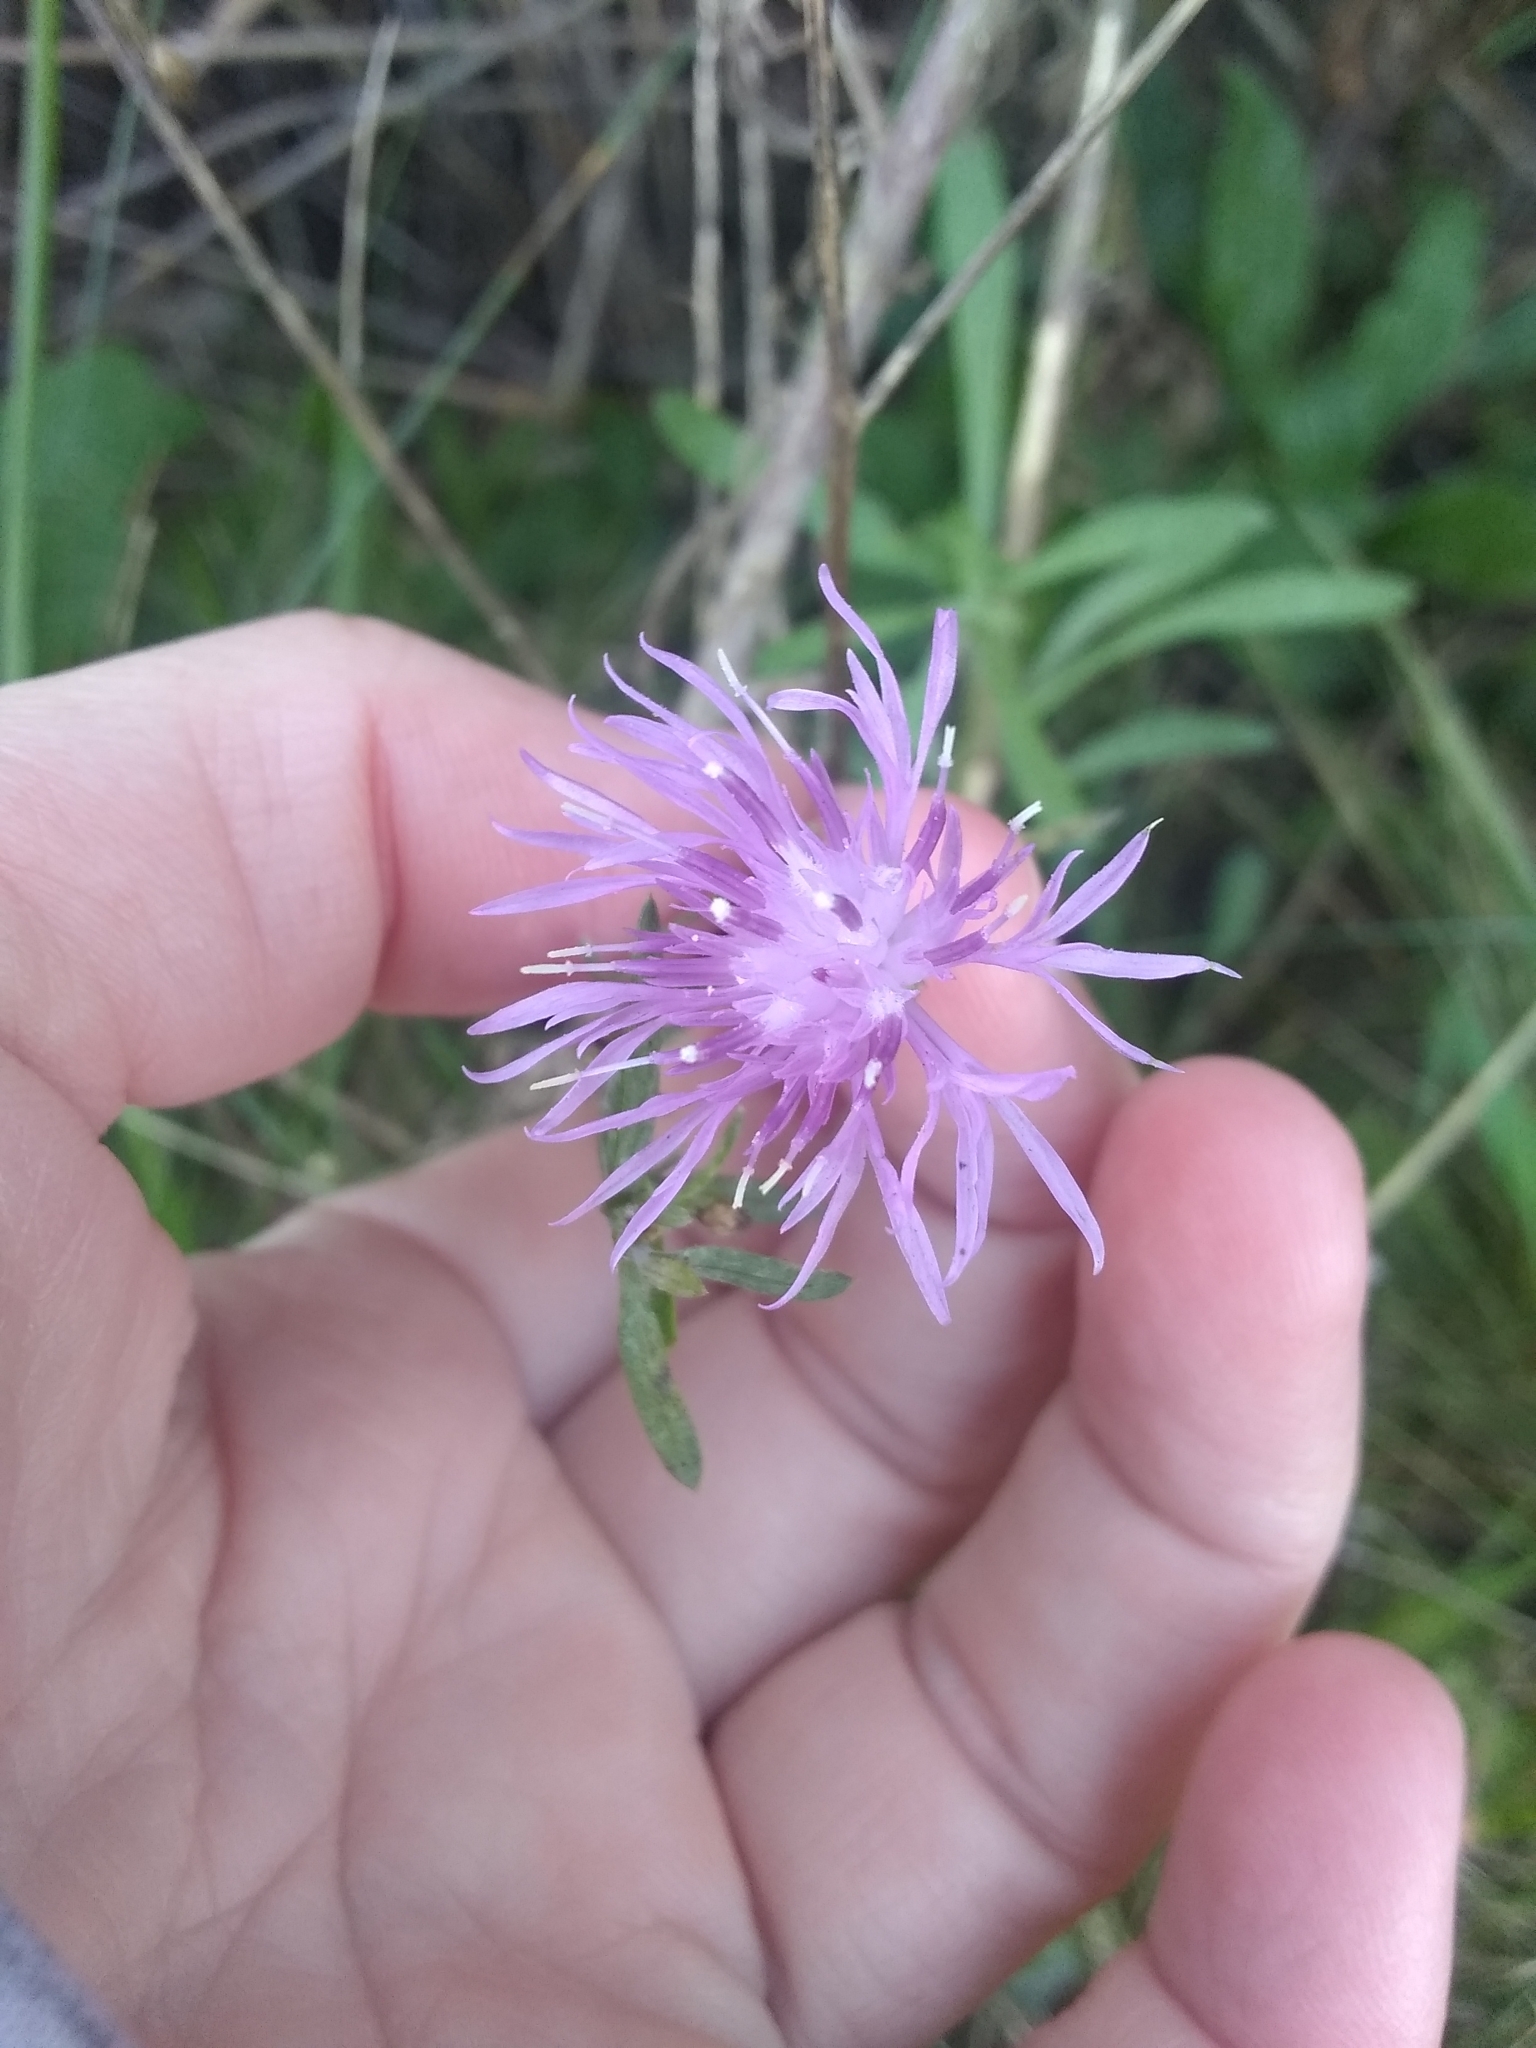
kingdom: Plantae
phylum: Tracheophyta
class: Magnoliopsida
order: Asterales
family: Asteraceae
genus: Centaurea
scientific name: Centaurea stoebe
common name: Spotted knapweed
